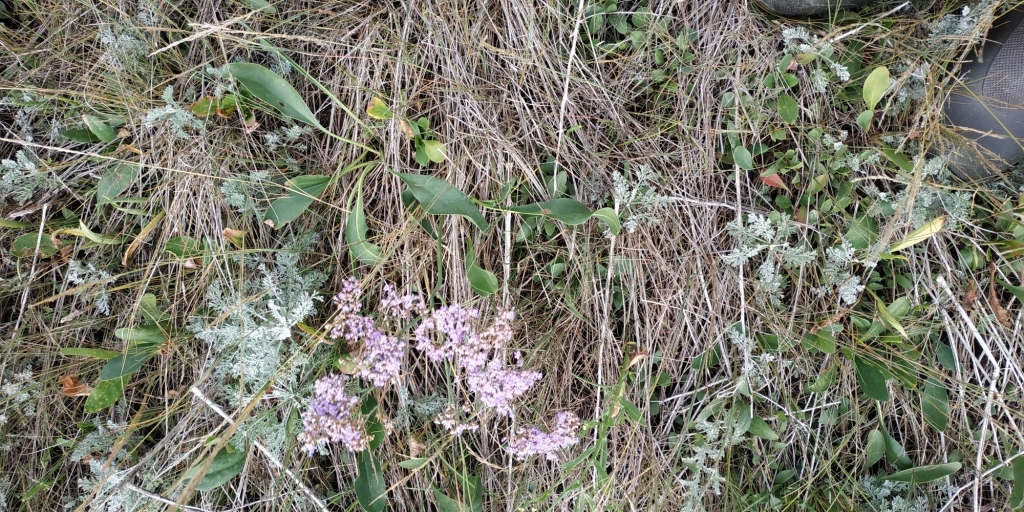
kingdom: Plantae
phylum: Tracheophyta
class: Magnoliopsida
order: Caryophyllales
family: Plumbaginaceae
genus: Limonium
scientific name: Limonium gmelini
